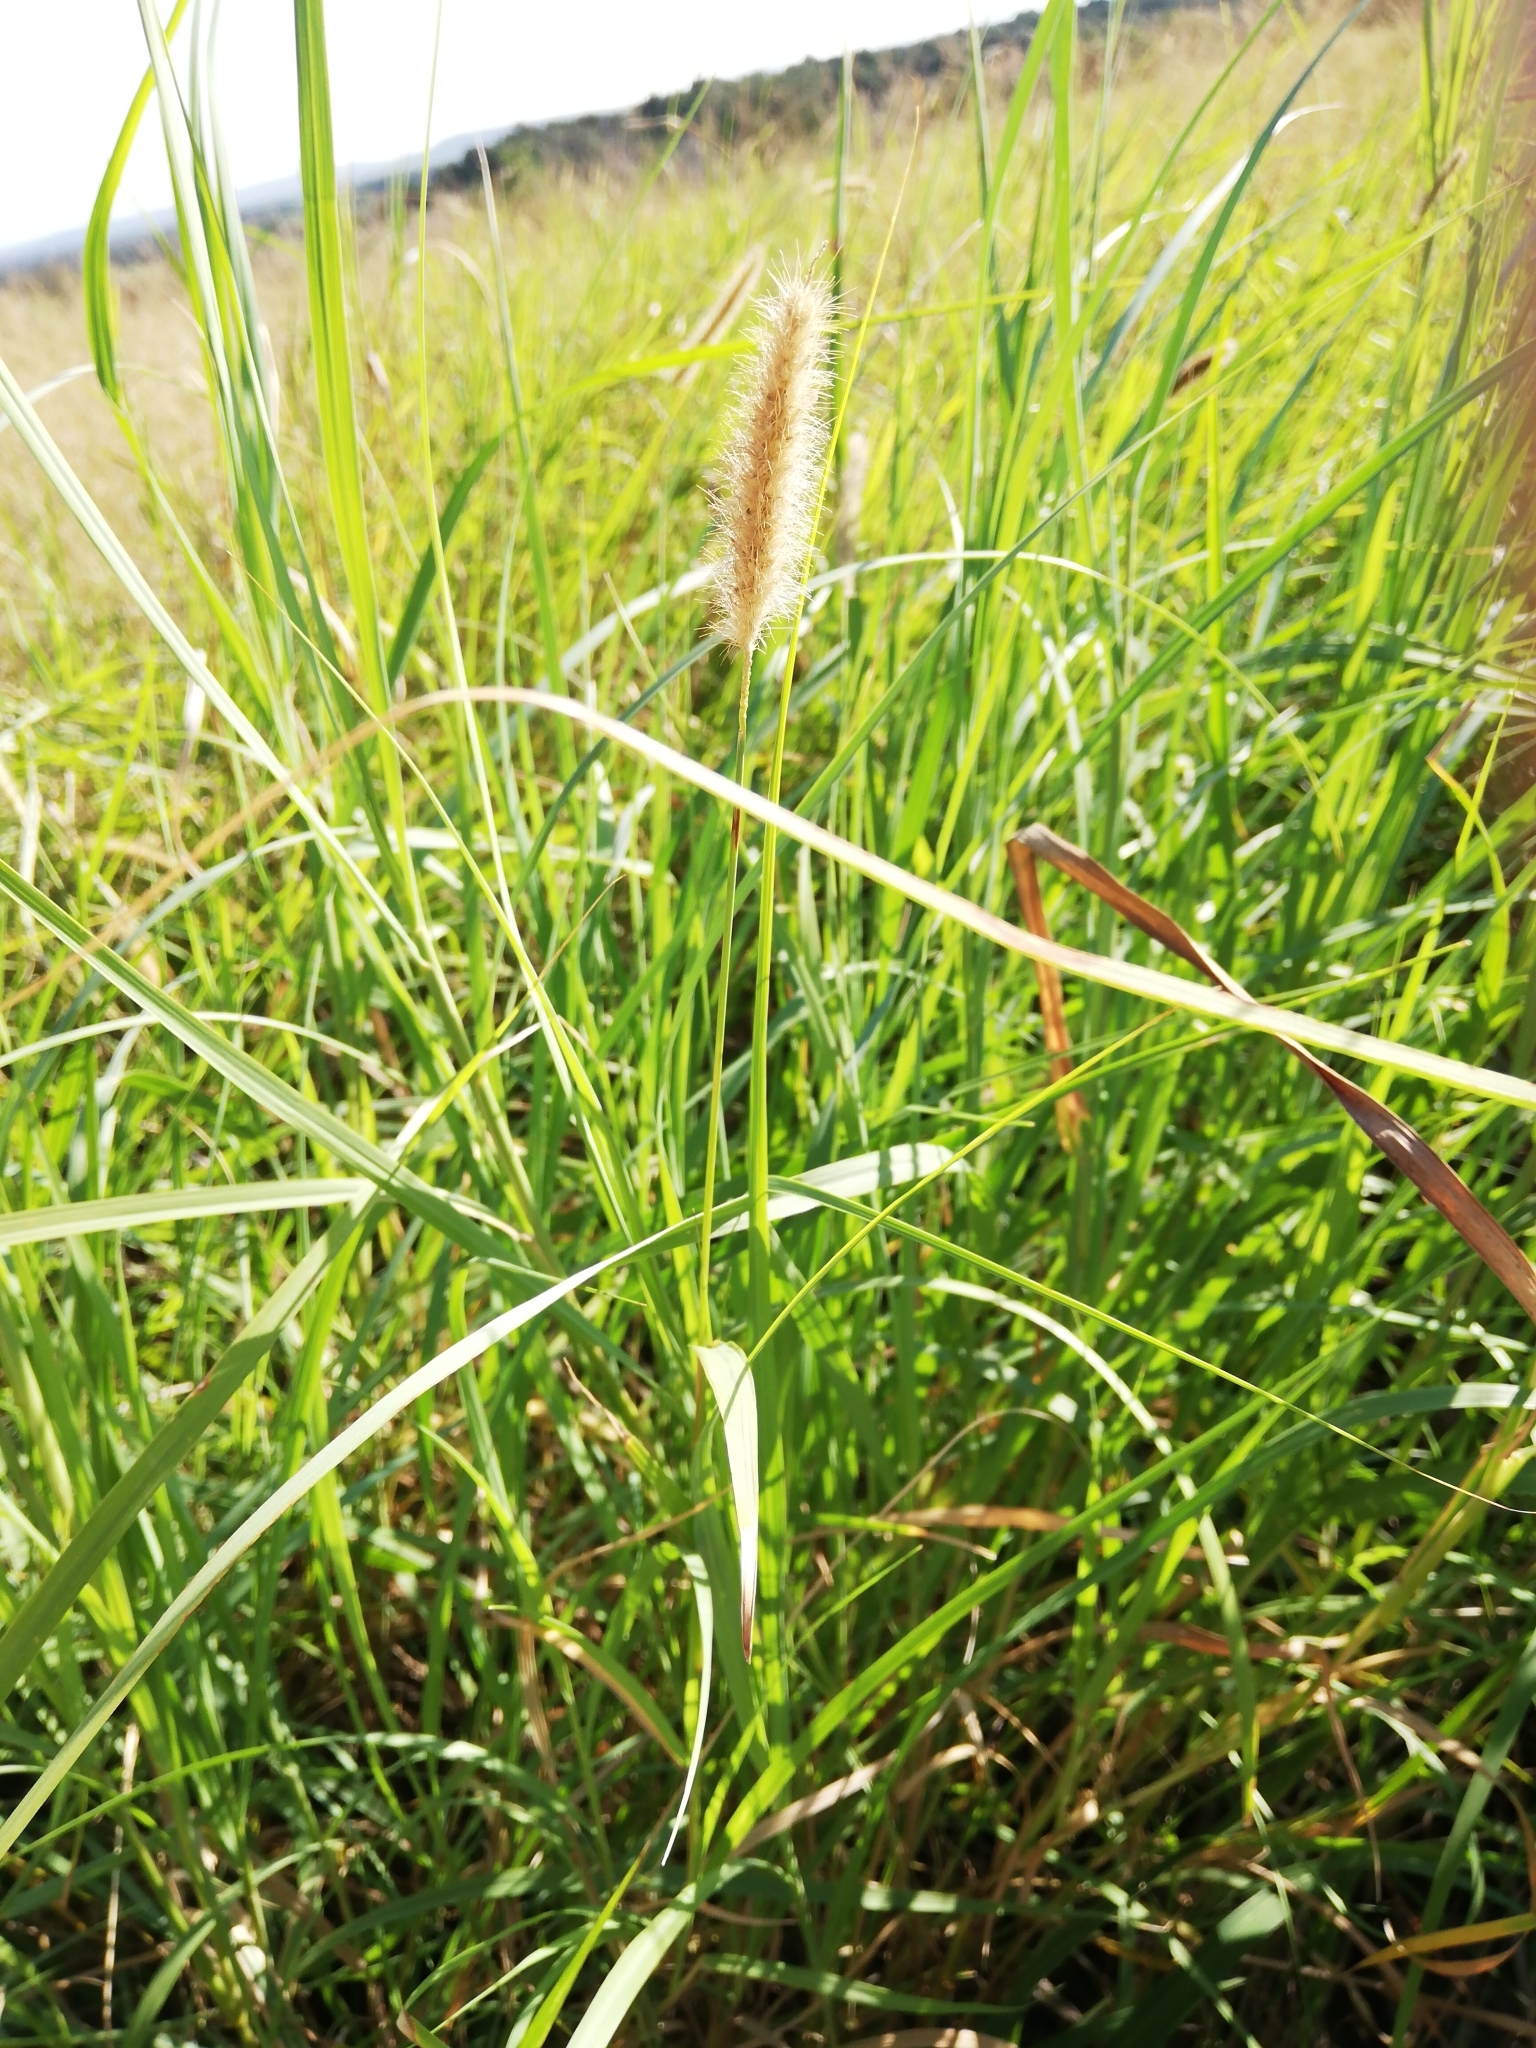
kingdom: Plantae
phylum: Tracheophyta
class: Liliopsida
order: Poales
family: Poaceae
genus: Cenchrus
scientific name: Cenchrus ciliaris
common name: Buffelgrass
